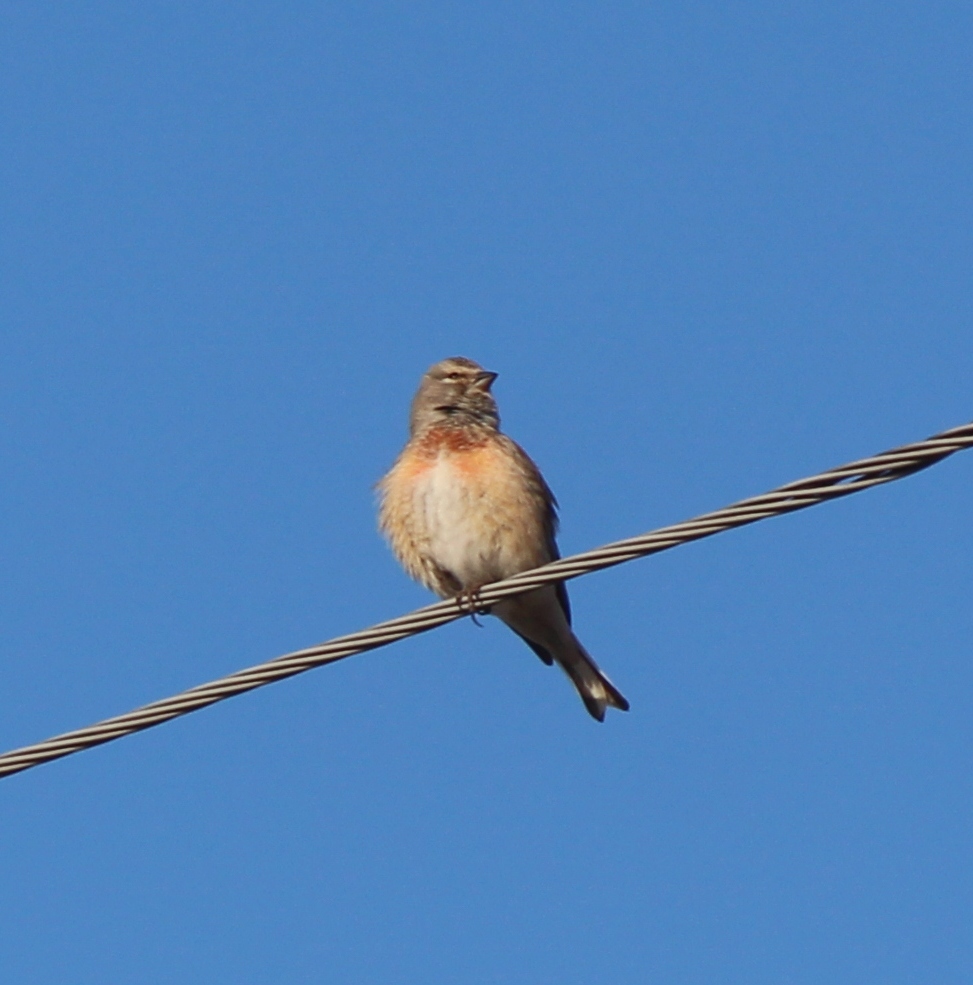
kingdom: Animalia
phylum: Chordata
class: Aves
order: Passeriformes
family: Fringillidae
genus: Linaria
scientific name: Linaria cannabina
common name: Common linnet
